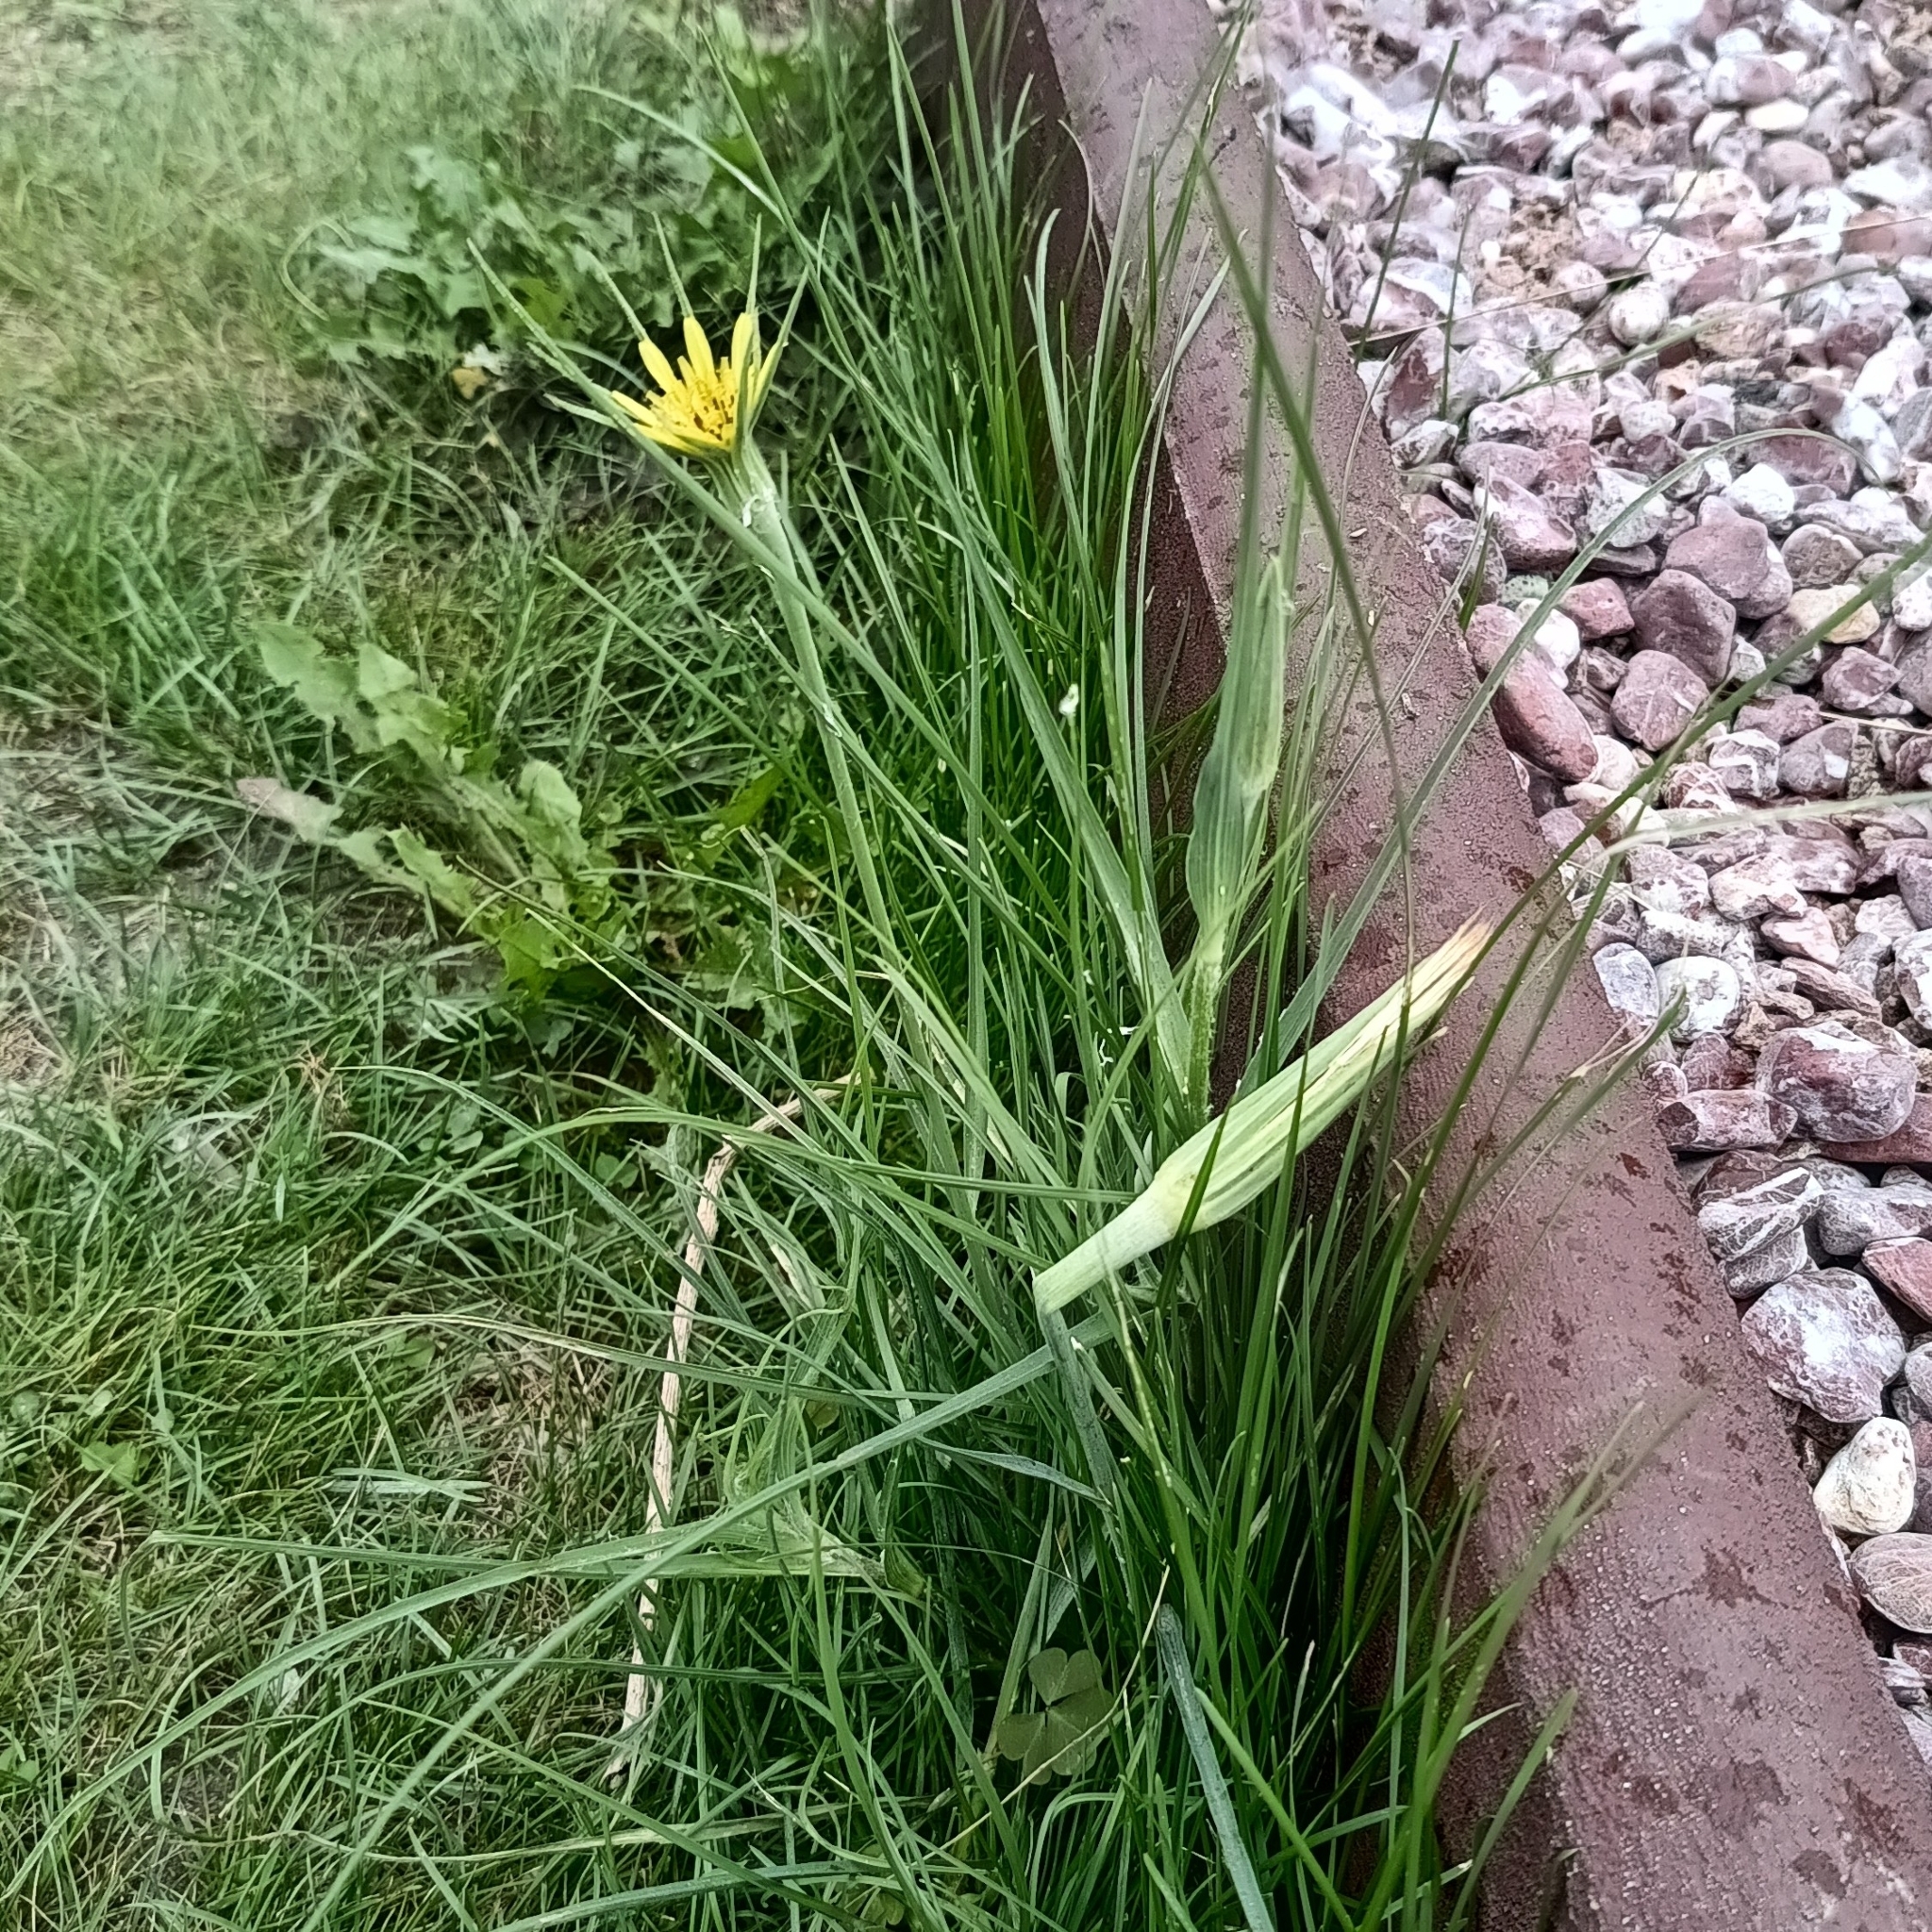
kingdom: Plantae
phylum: Tracheophyta
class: Magnoliopsida
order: Asterales
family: Asteraceae
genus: Tragopogon
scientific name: Tragopogon dubius
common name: Yellow salsify
